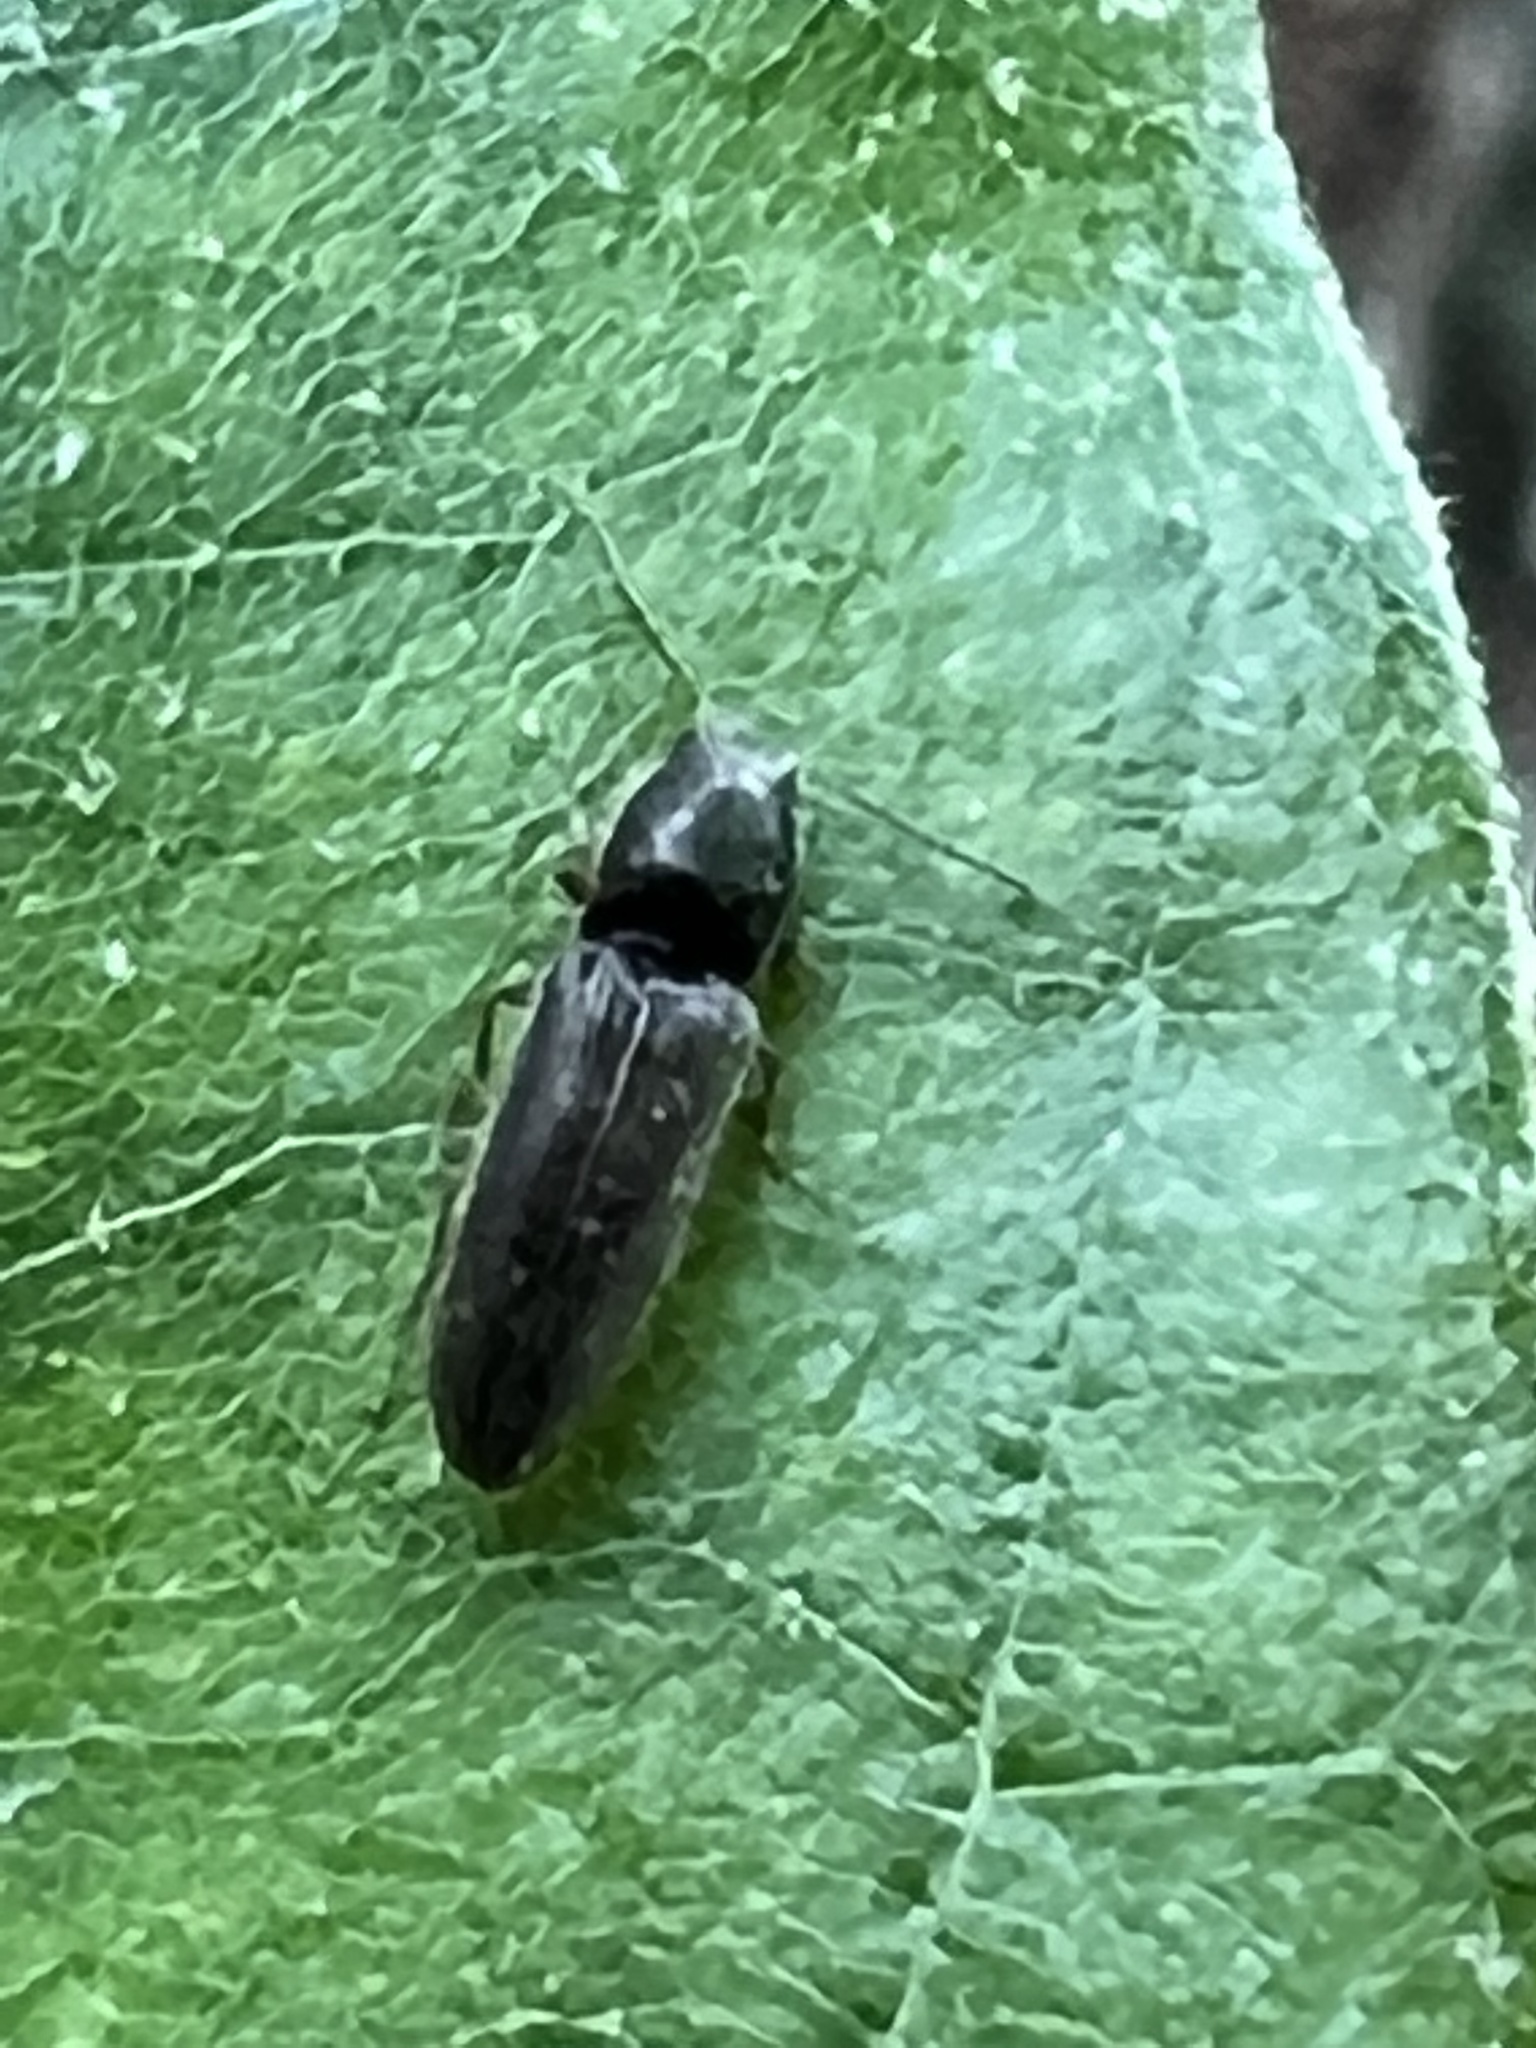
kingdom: Animalia
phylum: Arthropoda
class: Insecta
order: Coleoptera
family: Elateridae
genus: Limonius
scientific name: Limonius quercinus
